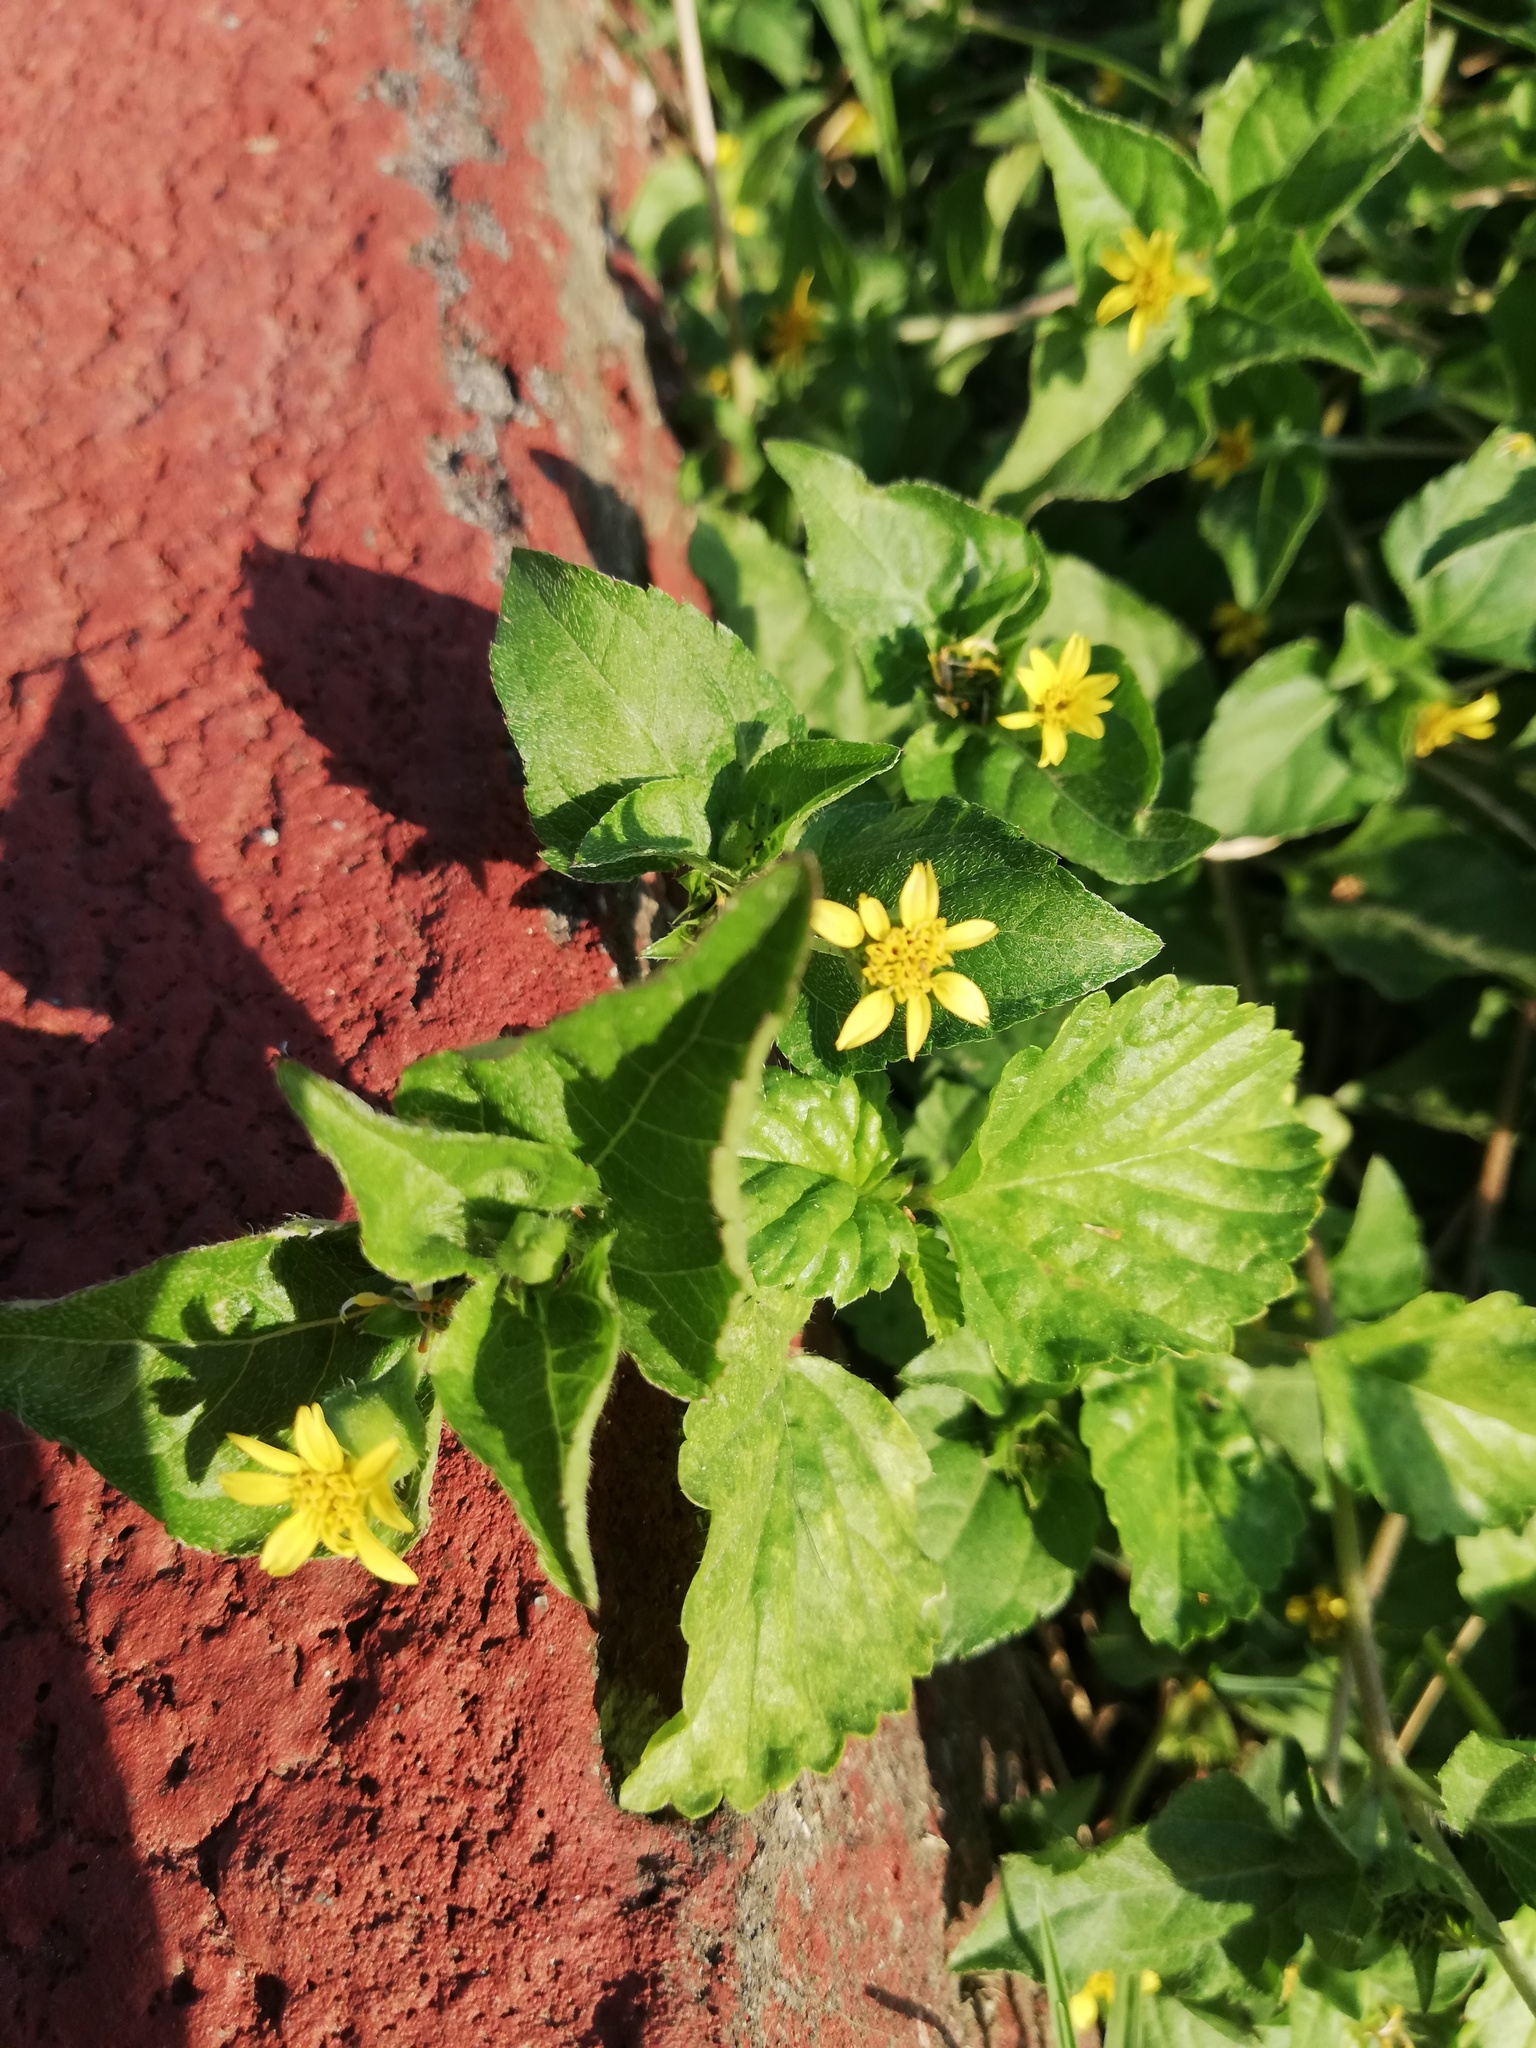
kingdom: Plantae
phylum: Tracheophyta
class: Magnoliopsida
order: Asterales
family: Asteraceae
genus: Calyptocarpus
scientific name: Calyptocarpus vialis
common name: Straggler daisy
